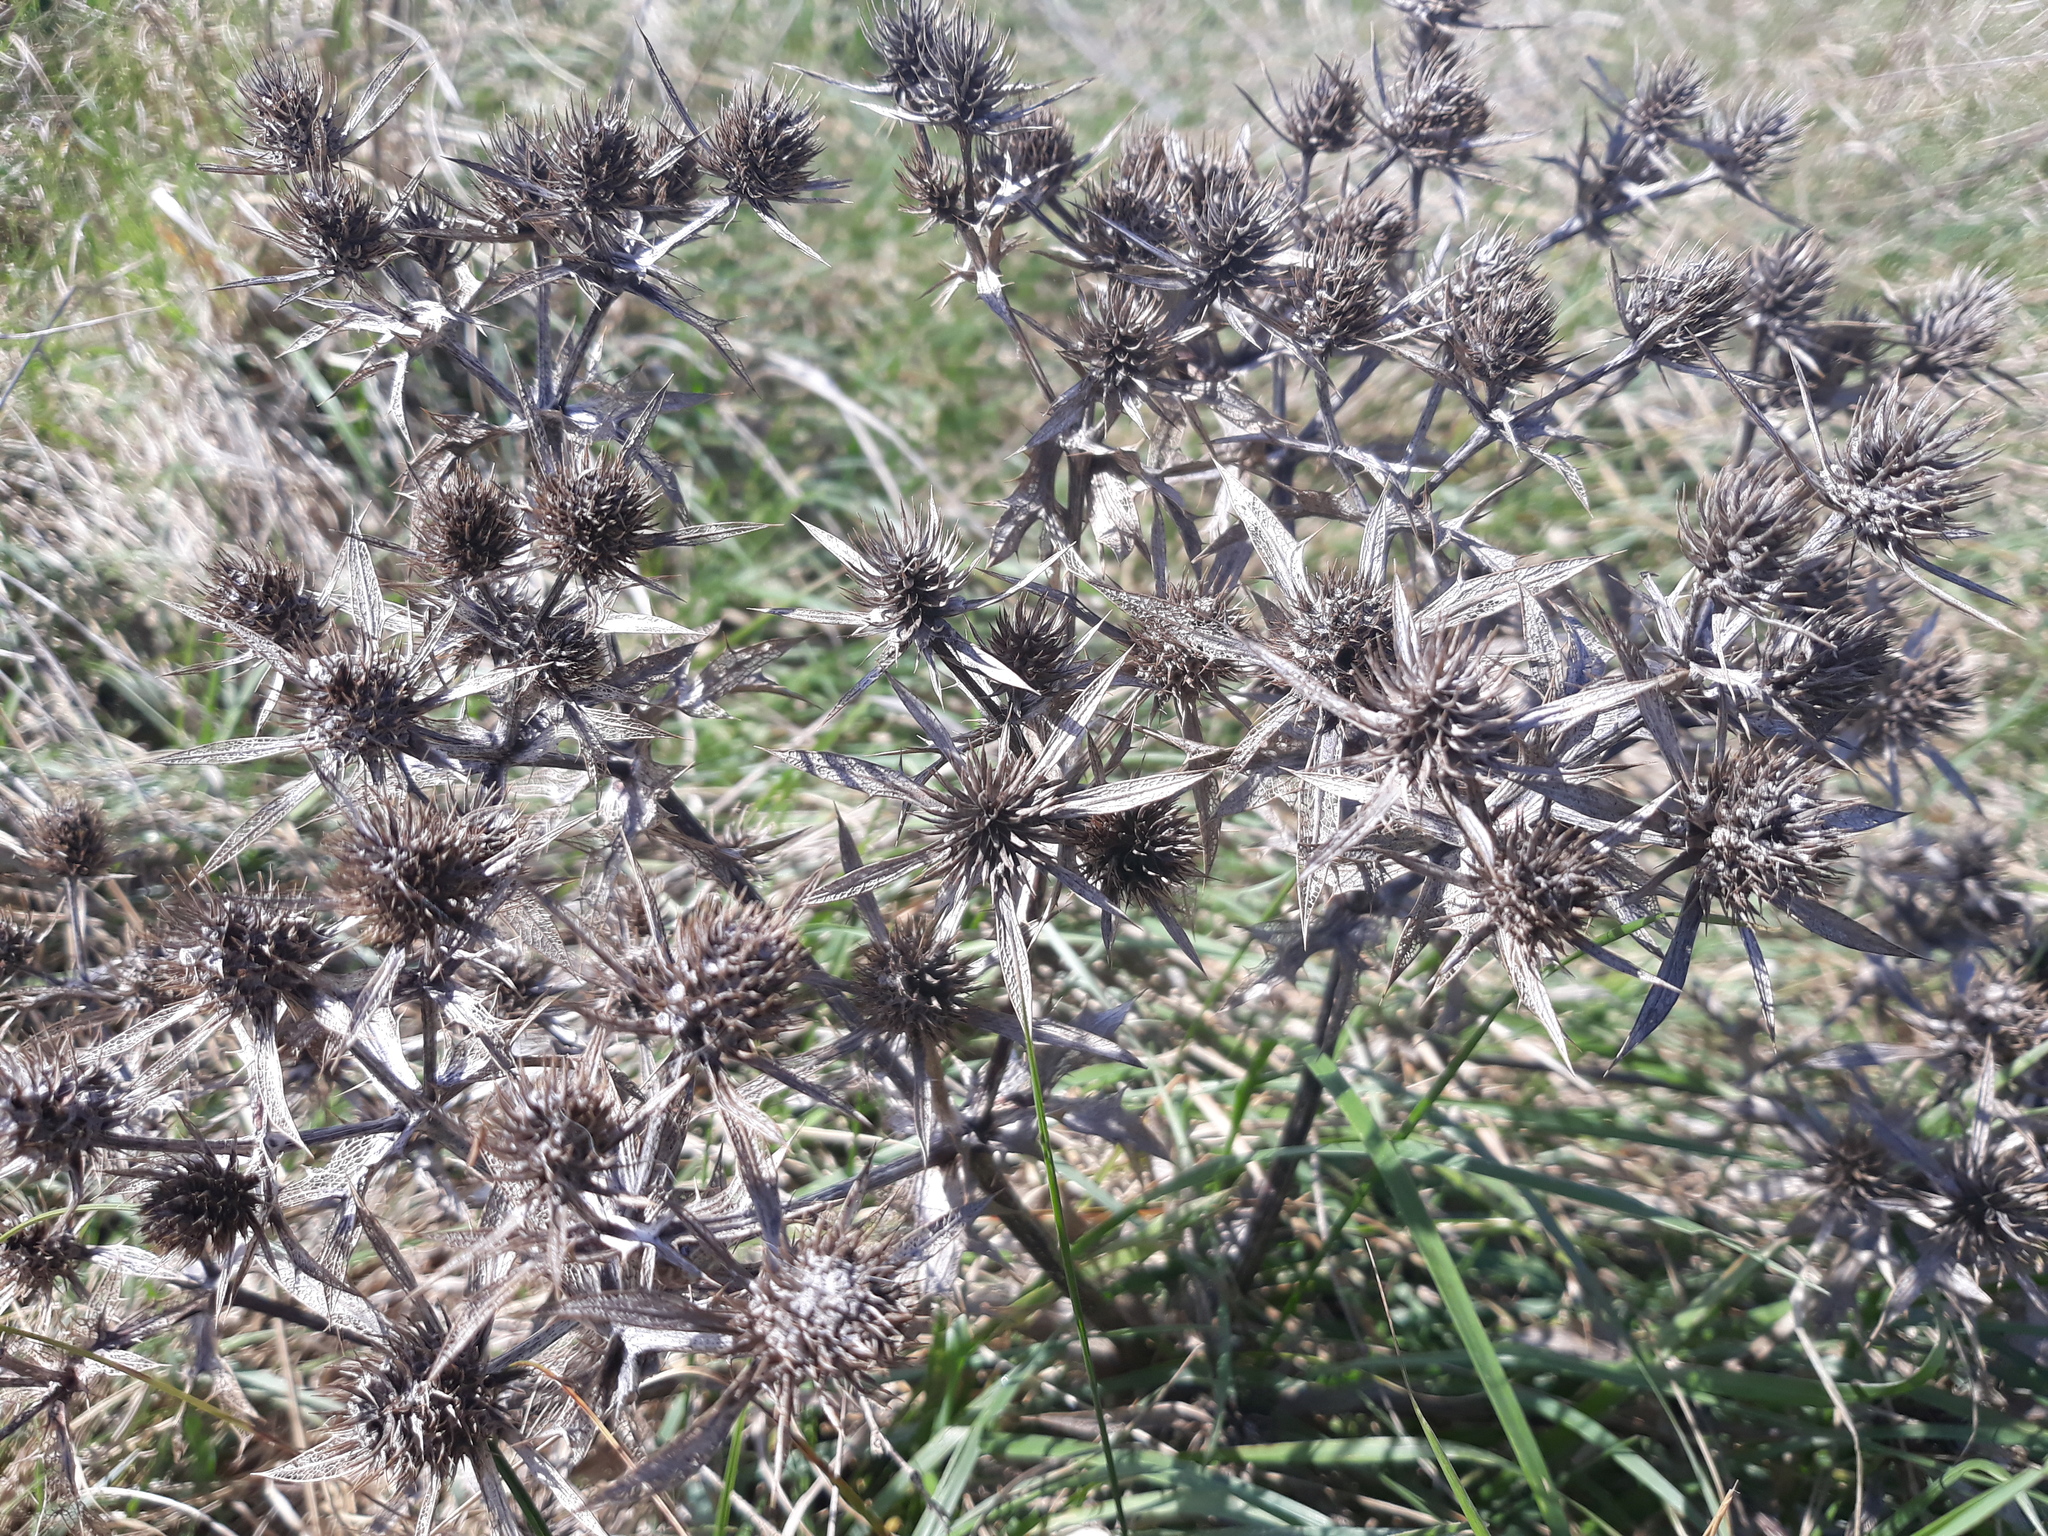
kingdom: Plantae
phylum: Tracheophyta
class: Magnoliopsida
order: Apiales
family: Apiaceae
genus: Eryngium
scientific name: Eryngium campestre
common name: Field eryngo
